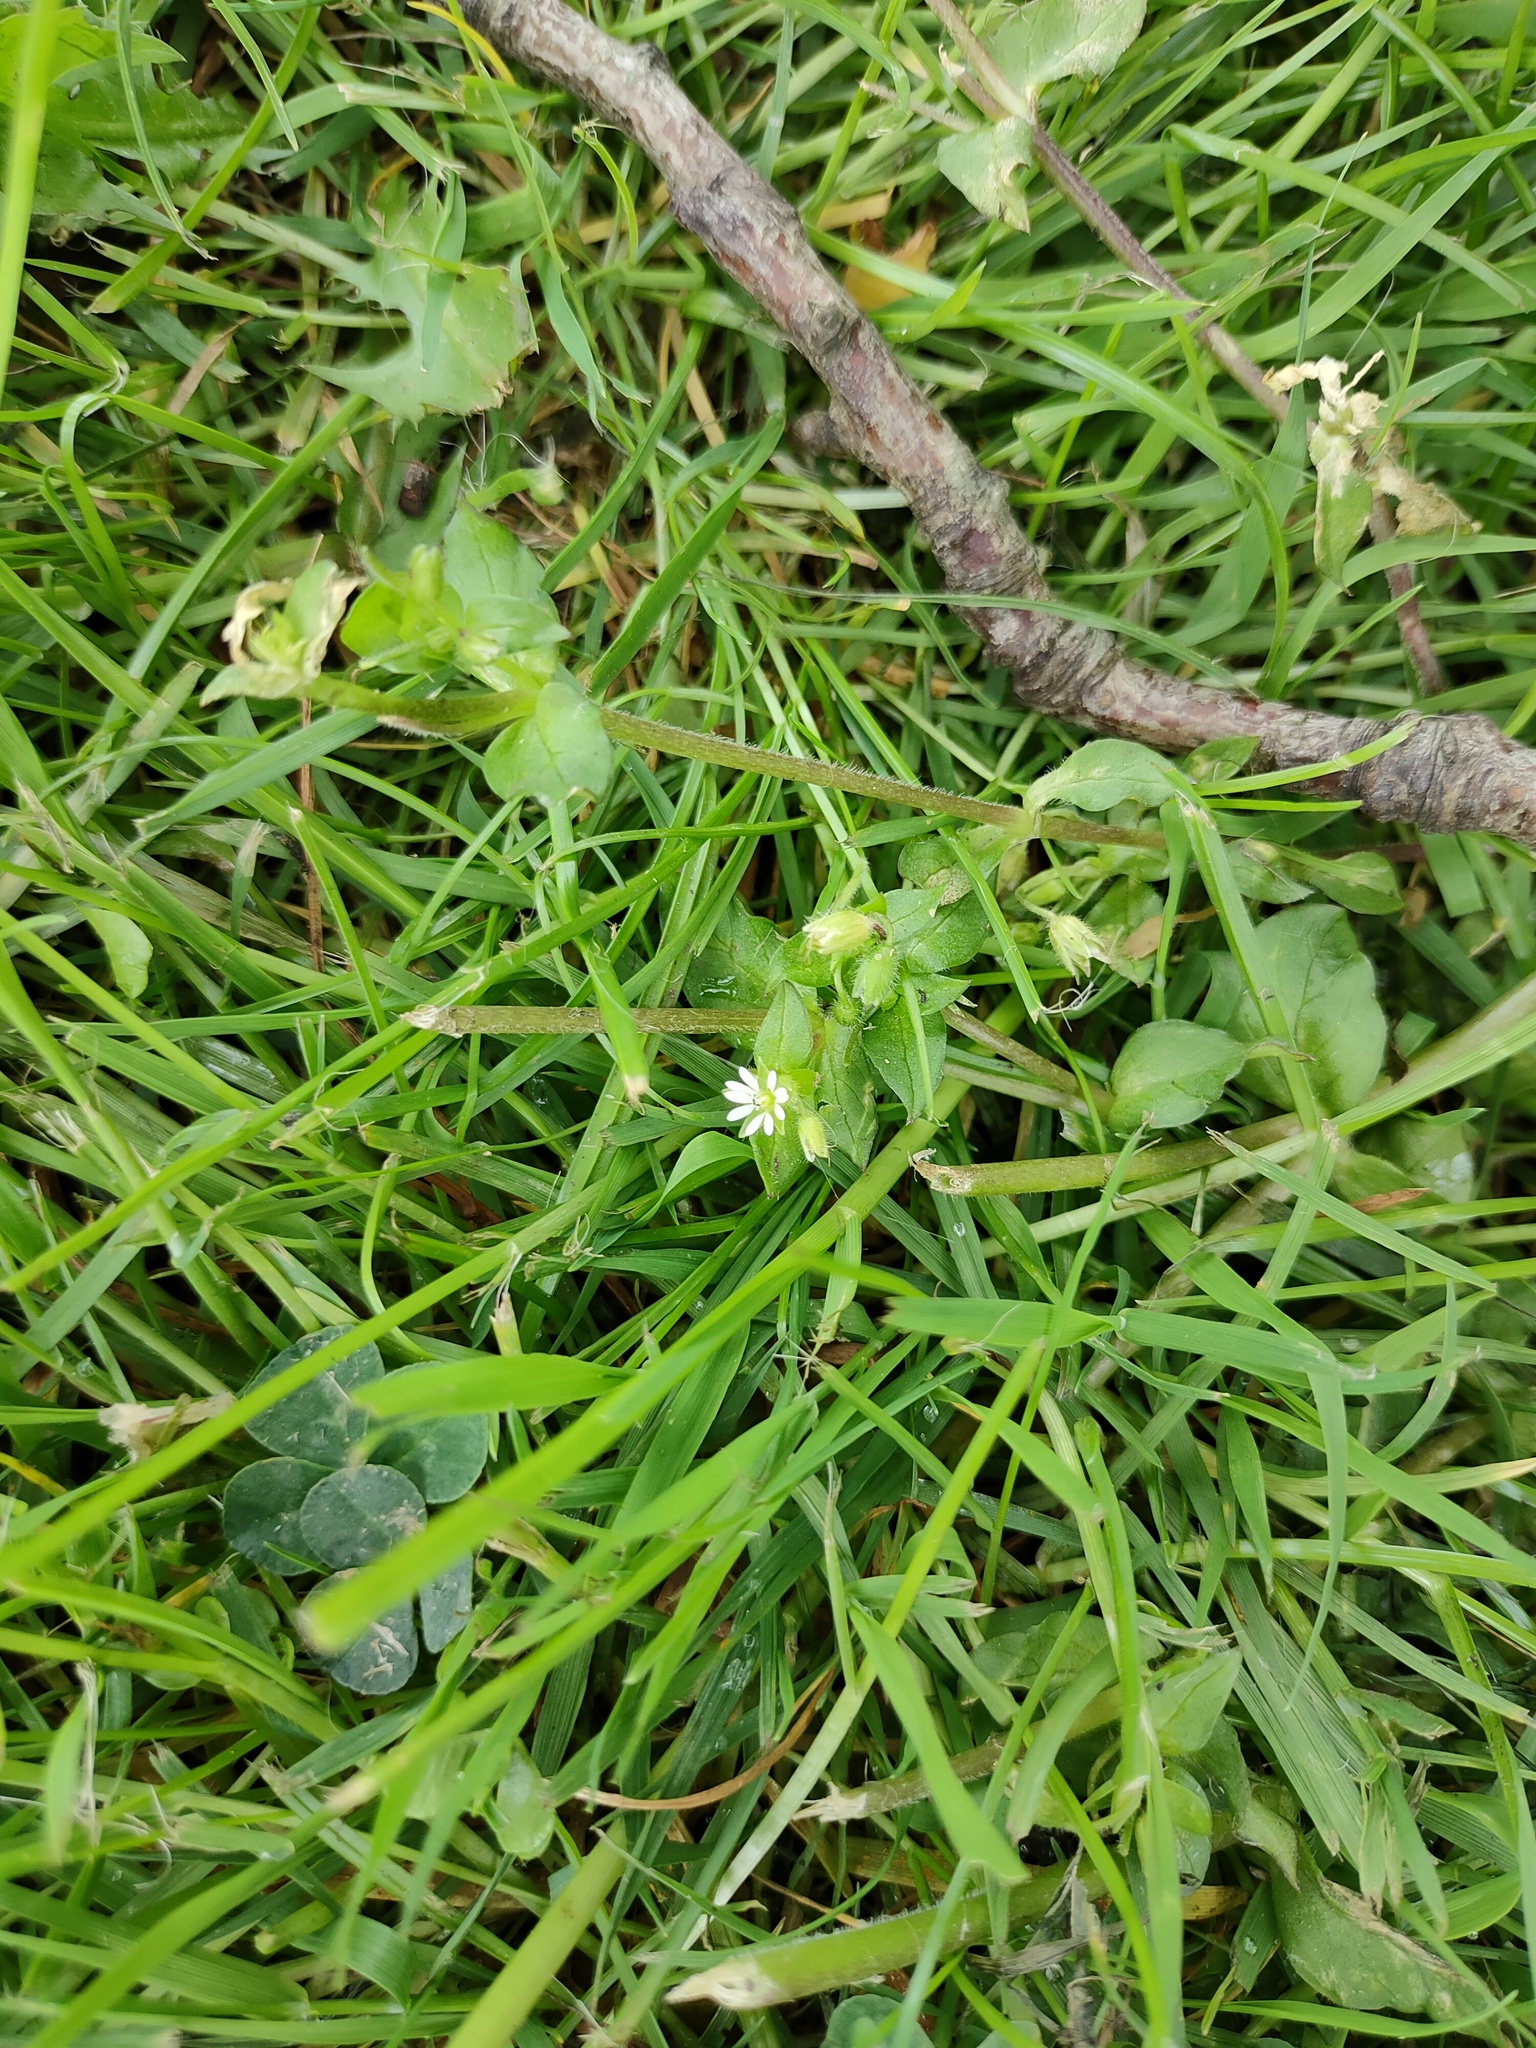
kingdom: Plantae
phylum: Tracheophyta
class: Magnoliopsida
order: Caryophyllales
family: Caryophyllaceae
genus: Stellaria
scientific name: Stellaria media
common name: Common chickweed
